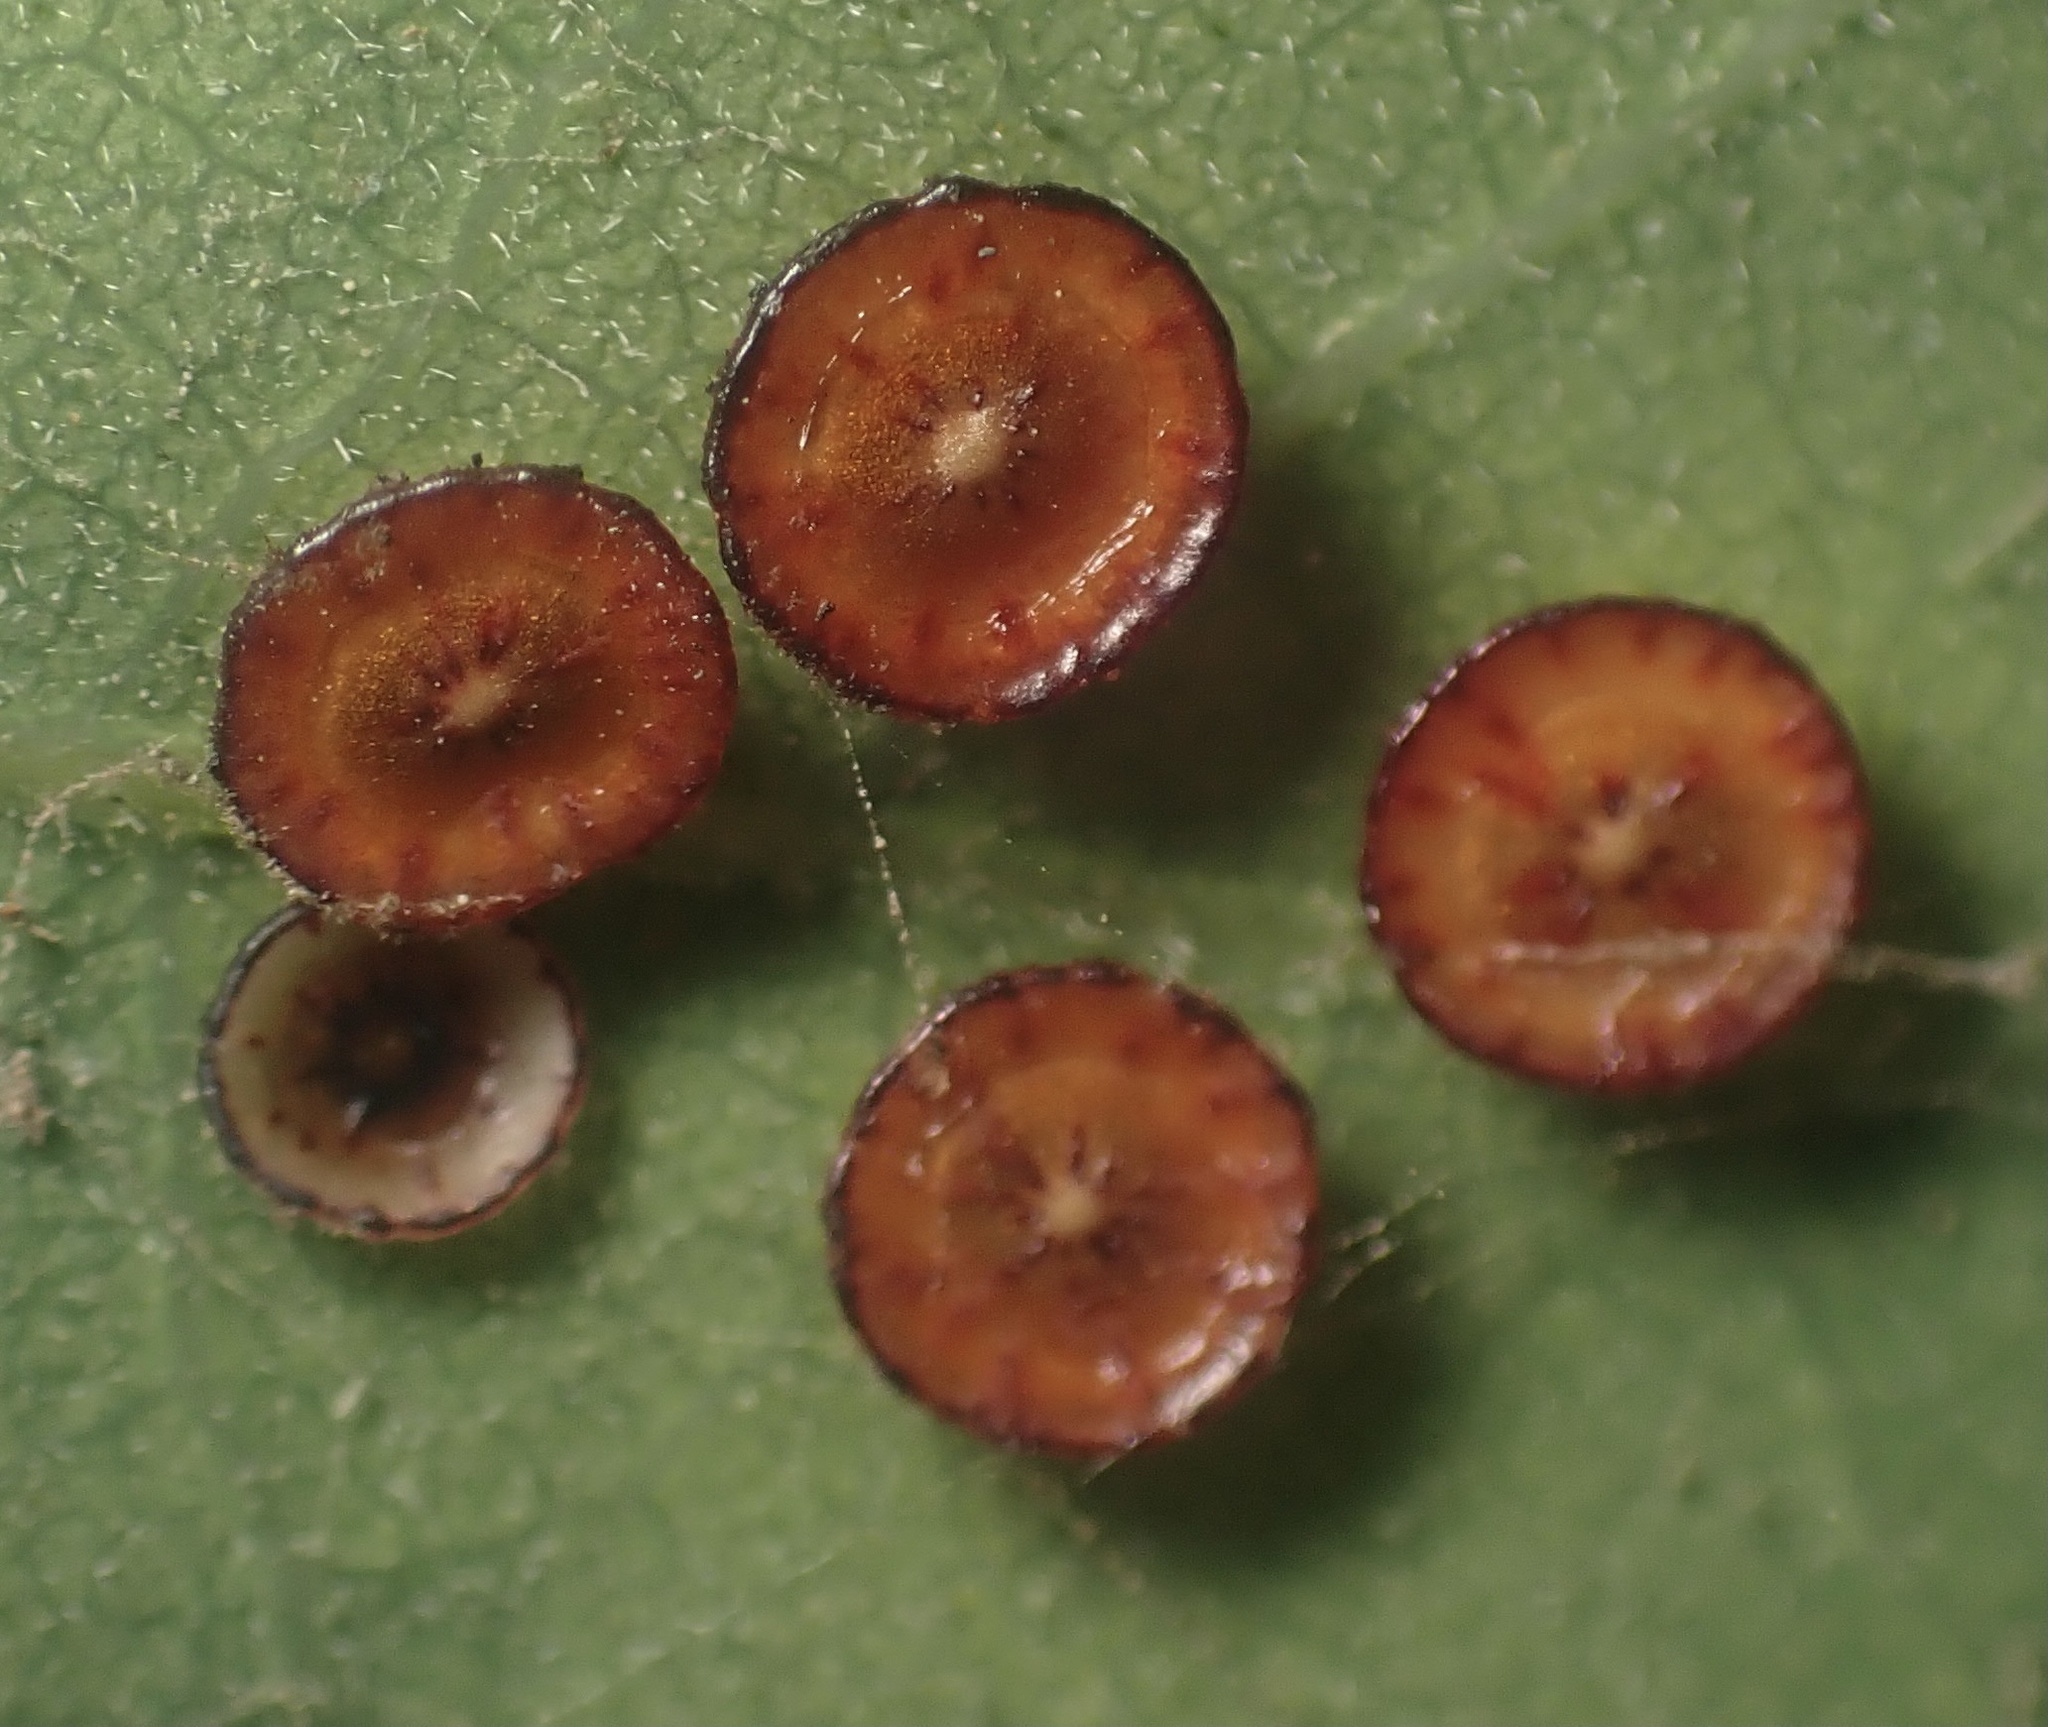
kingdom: Animalia
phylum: Arthropoda
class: Insecta
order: Hymenoptera
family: Cynipidae
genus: Andricus
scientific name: Andricus
